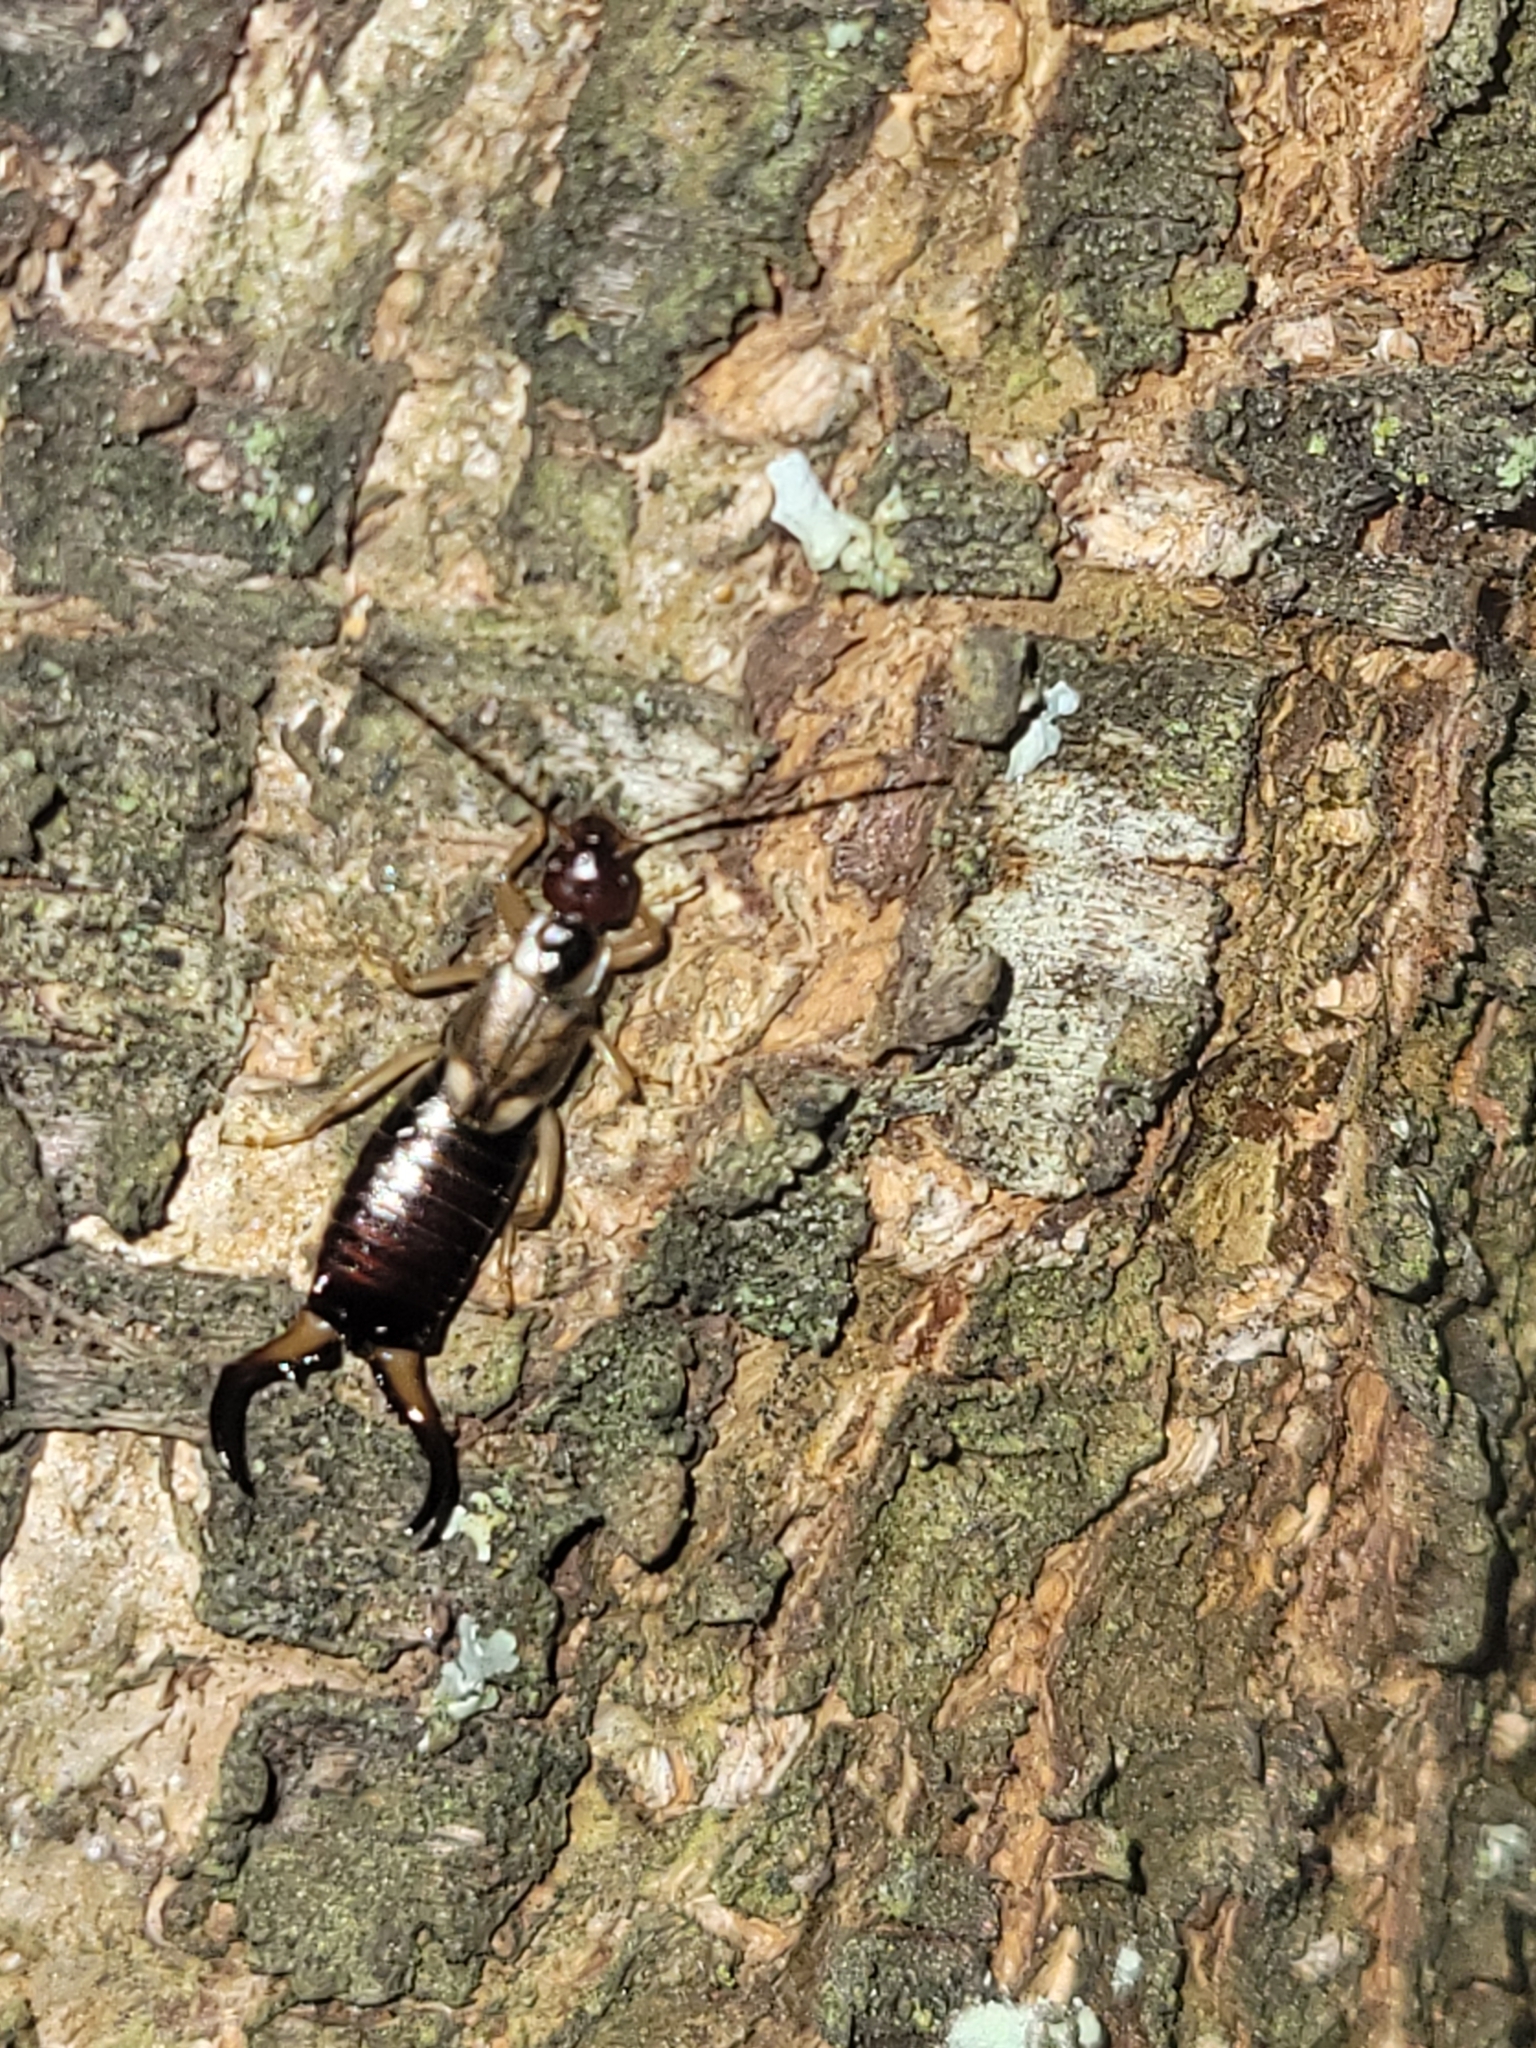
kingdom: Animalia
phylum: Arthropoda
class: Insecta
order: Dermaptera
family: Forficulidae
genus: Forficula
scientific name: Forficula
